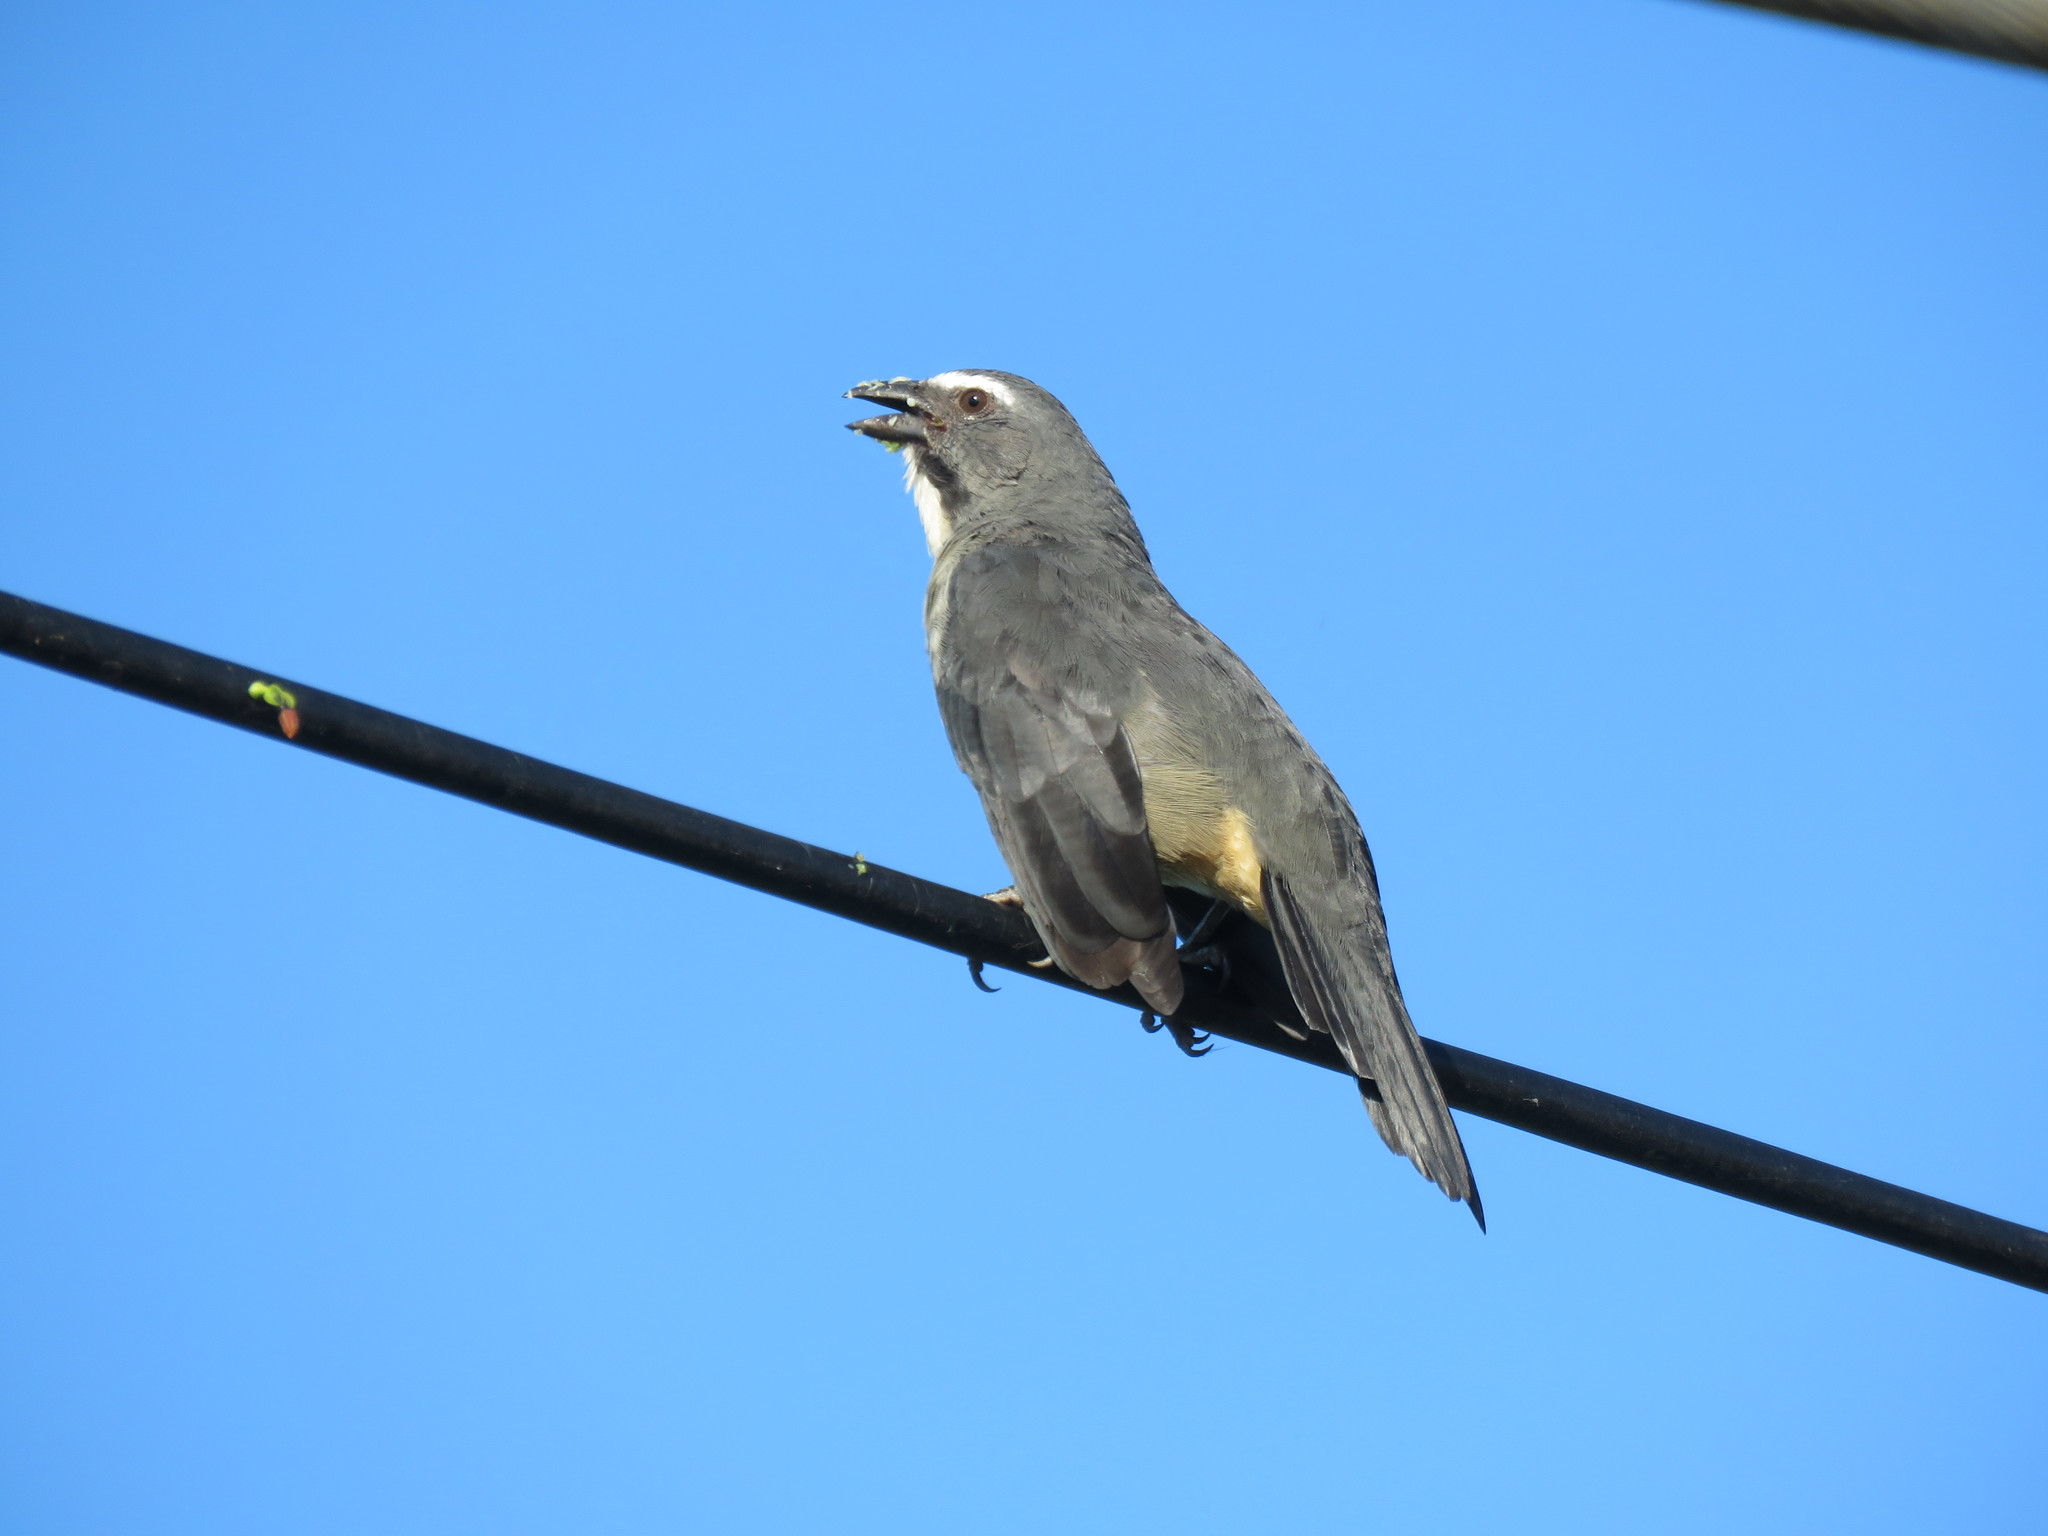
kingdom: Animalia
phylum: Chordata
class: Aves
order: Passeriformes
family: Thraupidae
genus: Saltator
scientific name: Saltator coerulescens
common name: Grayish saltator
